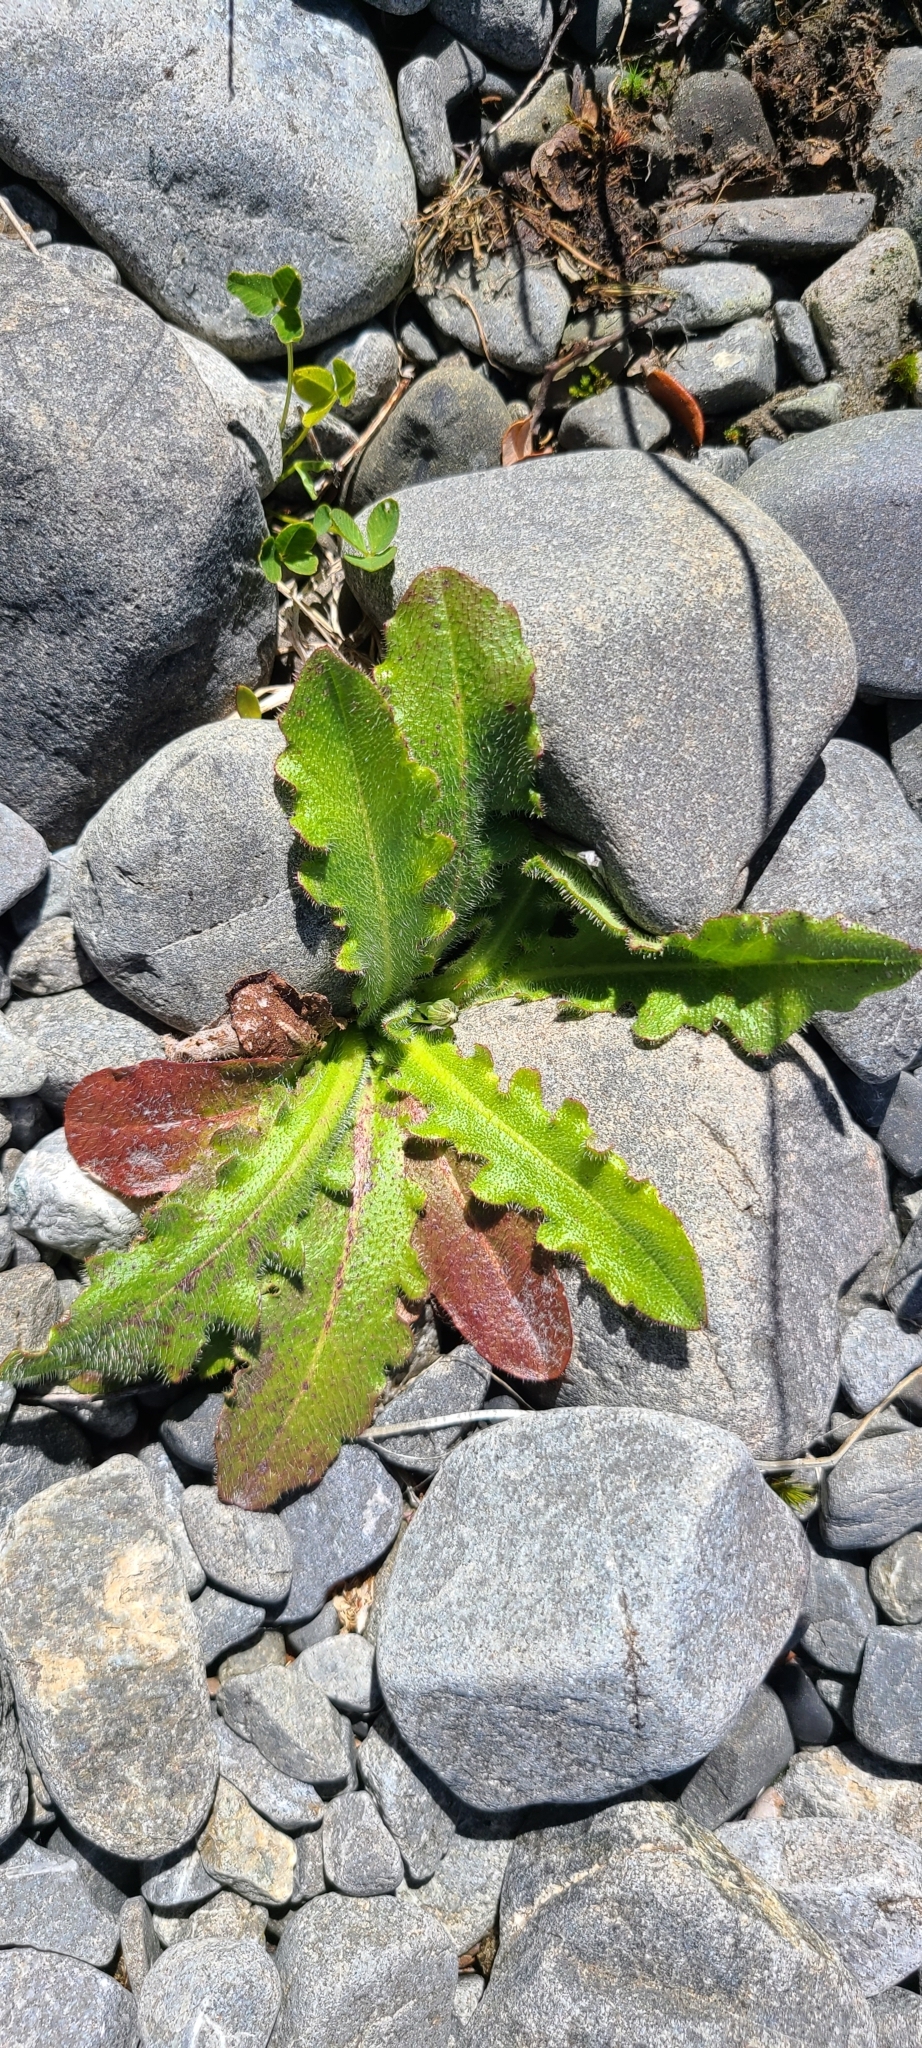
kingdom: Plantae
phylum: Tracheophyta
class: Magnoliopsida
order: Asterales
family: Asteraceae
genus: Hypochaeris
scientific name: Hypochaeris radicata
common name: Flatweed
